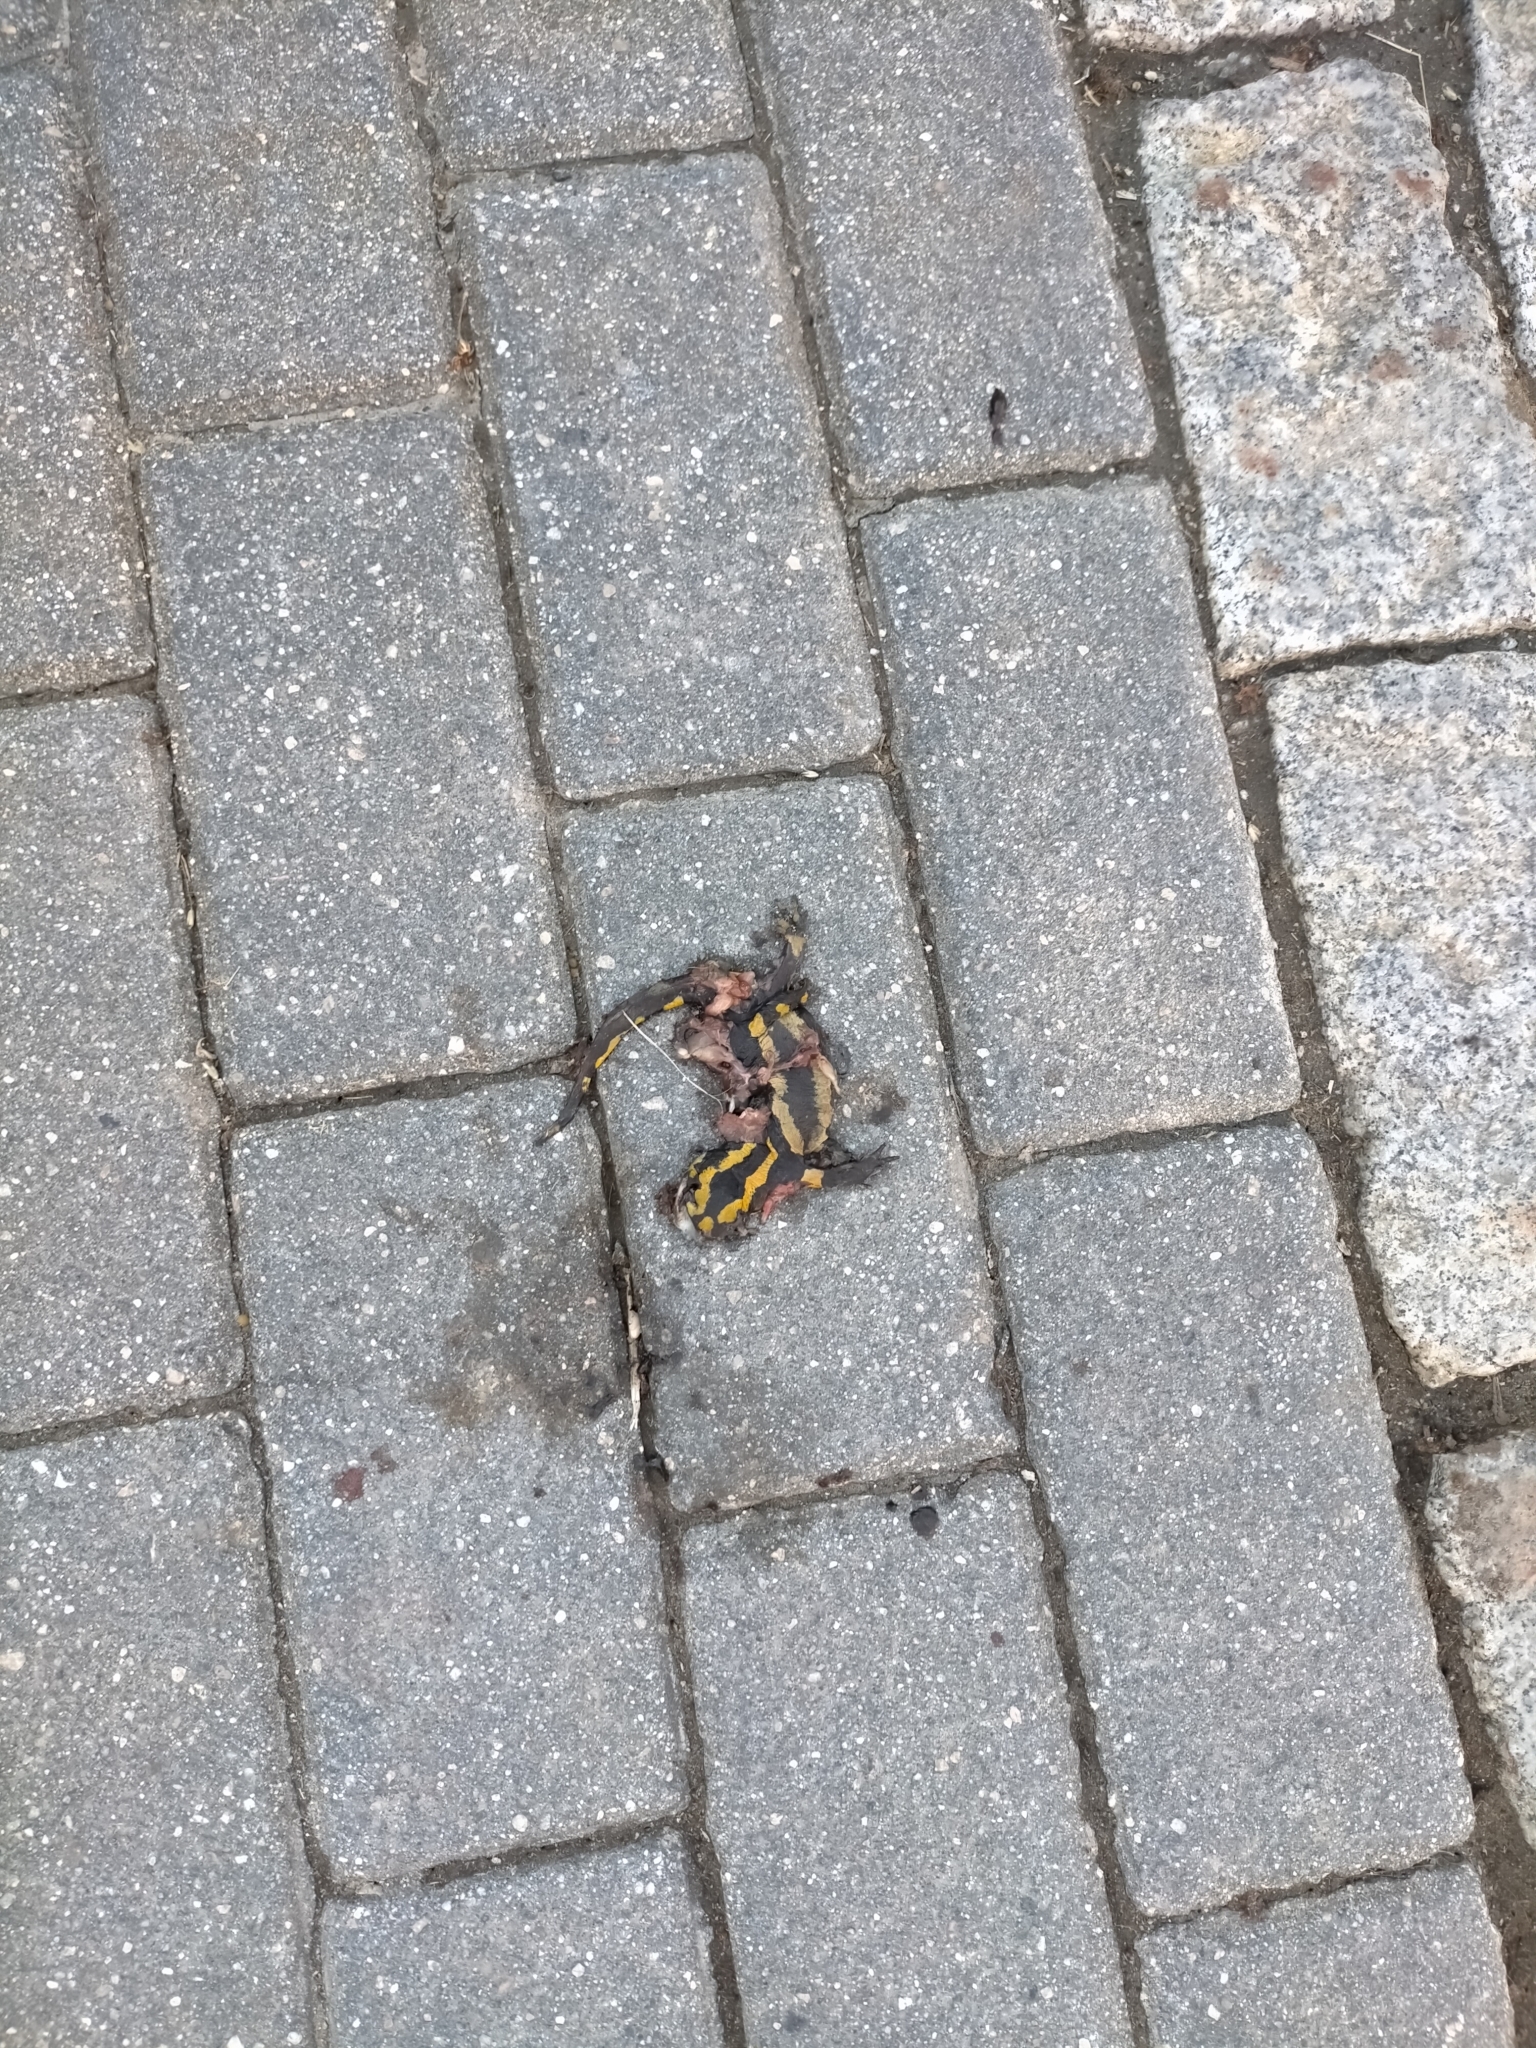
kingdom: Animalia
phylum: Chordata
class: Amphibia
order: Caudata
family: Salamandridae
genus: Salamandra
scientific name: Salamandra salamandra
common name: Fire salamander
